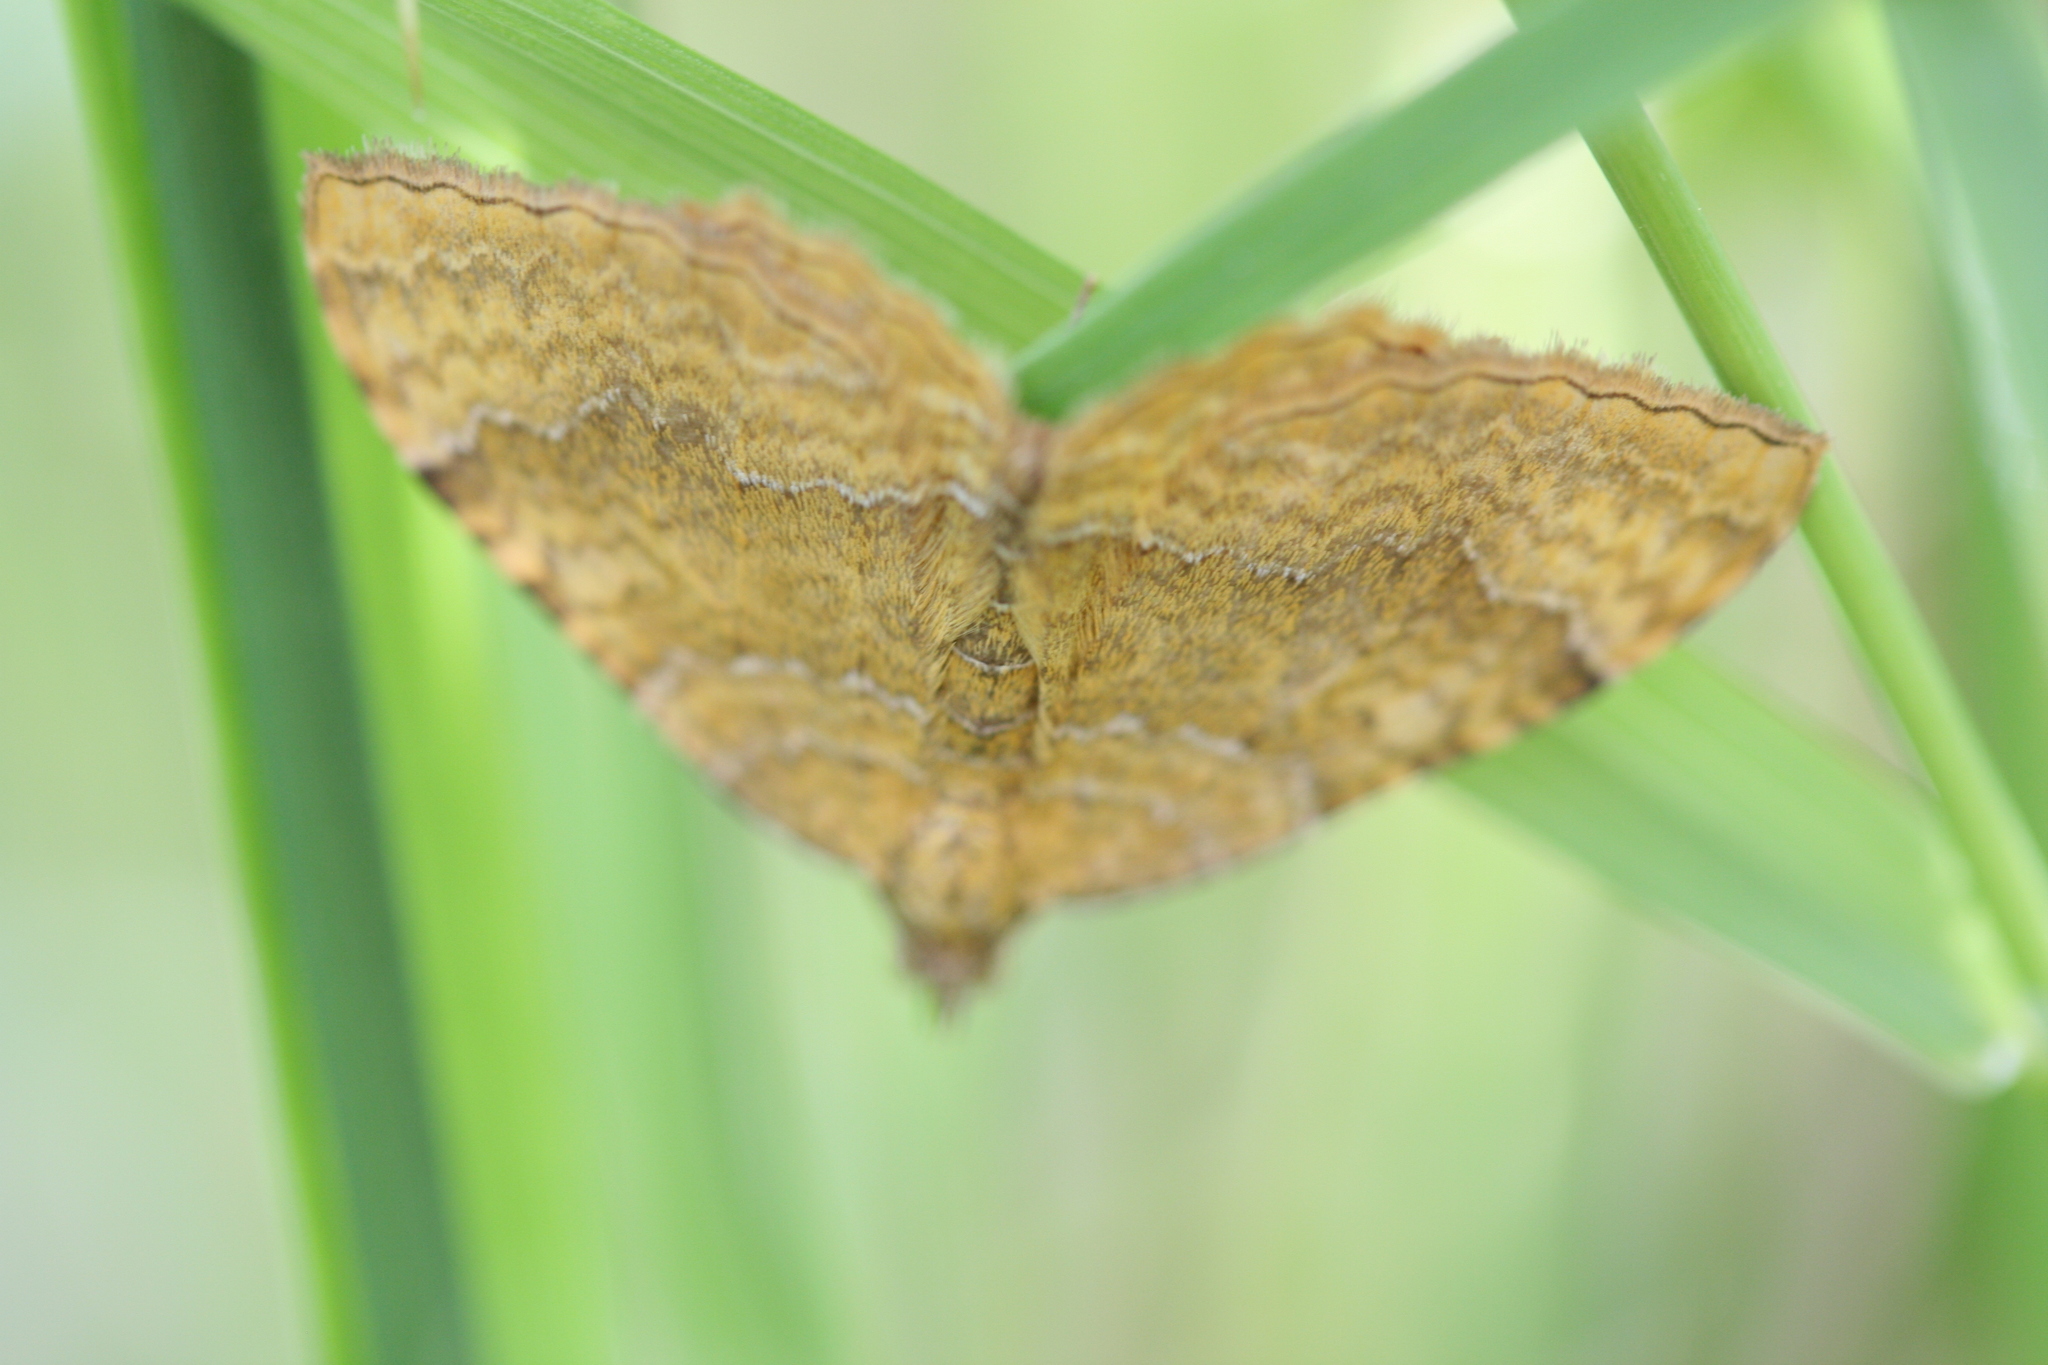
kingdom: Animalia
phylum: Arthropoda
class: Insecta
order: Lepidoptera
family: Geometridae
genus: Camptogramma
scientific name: Camptogramma bilineata
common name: Yellow shell
